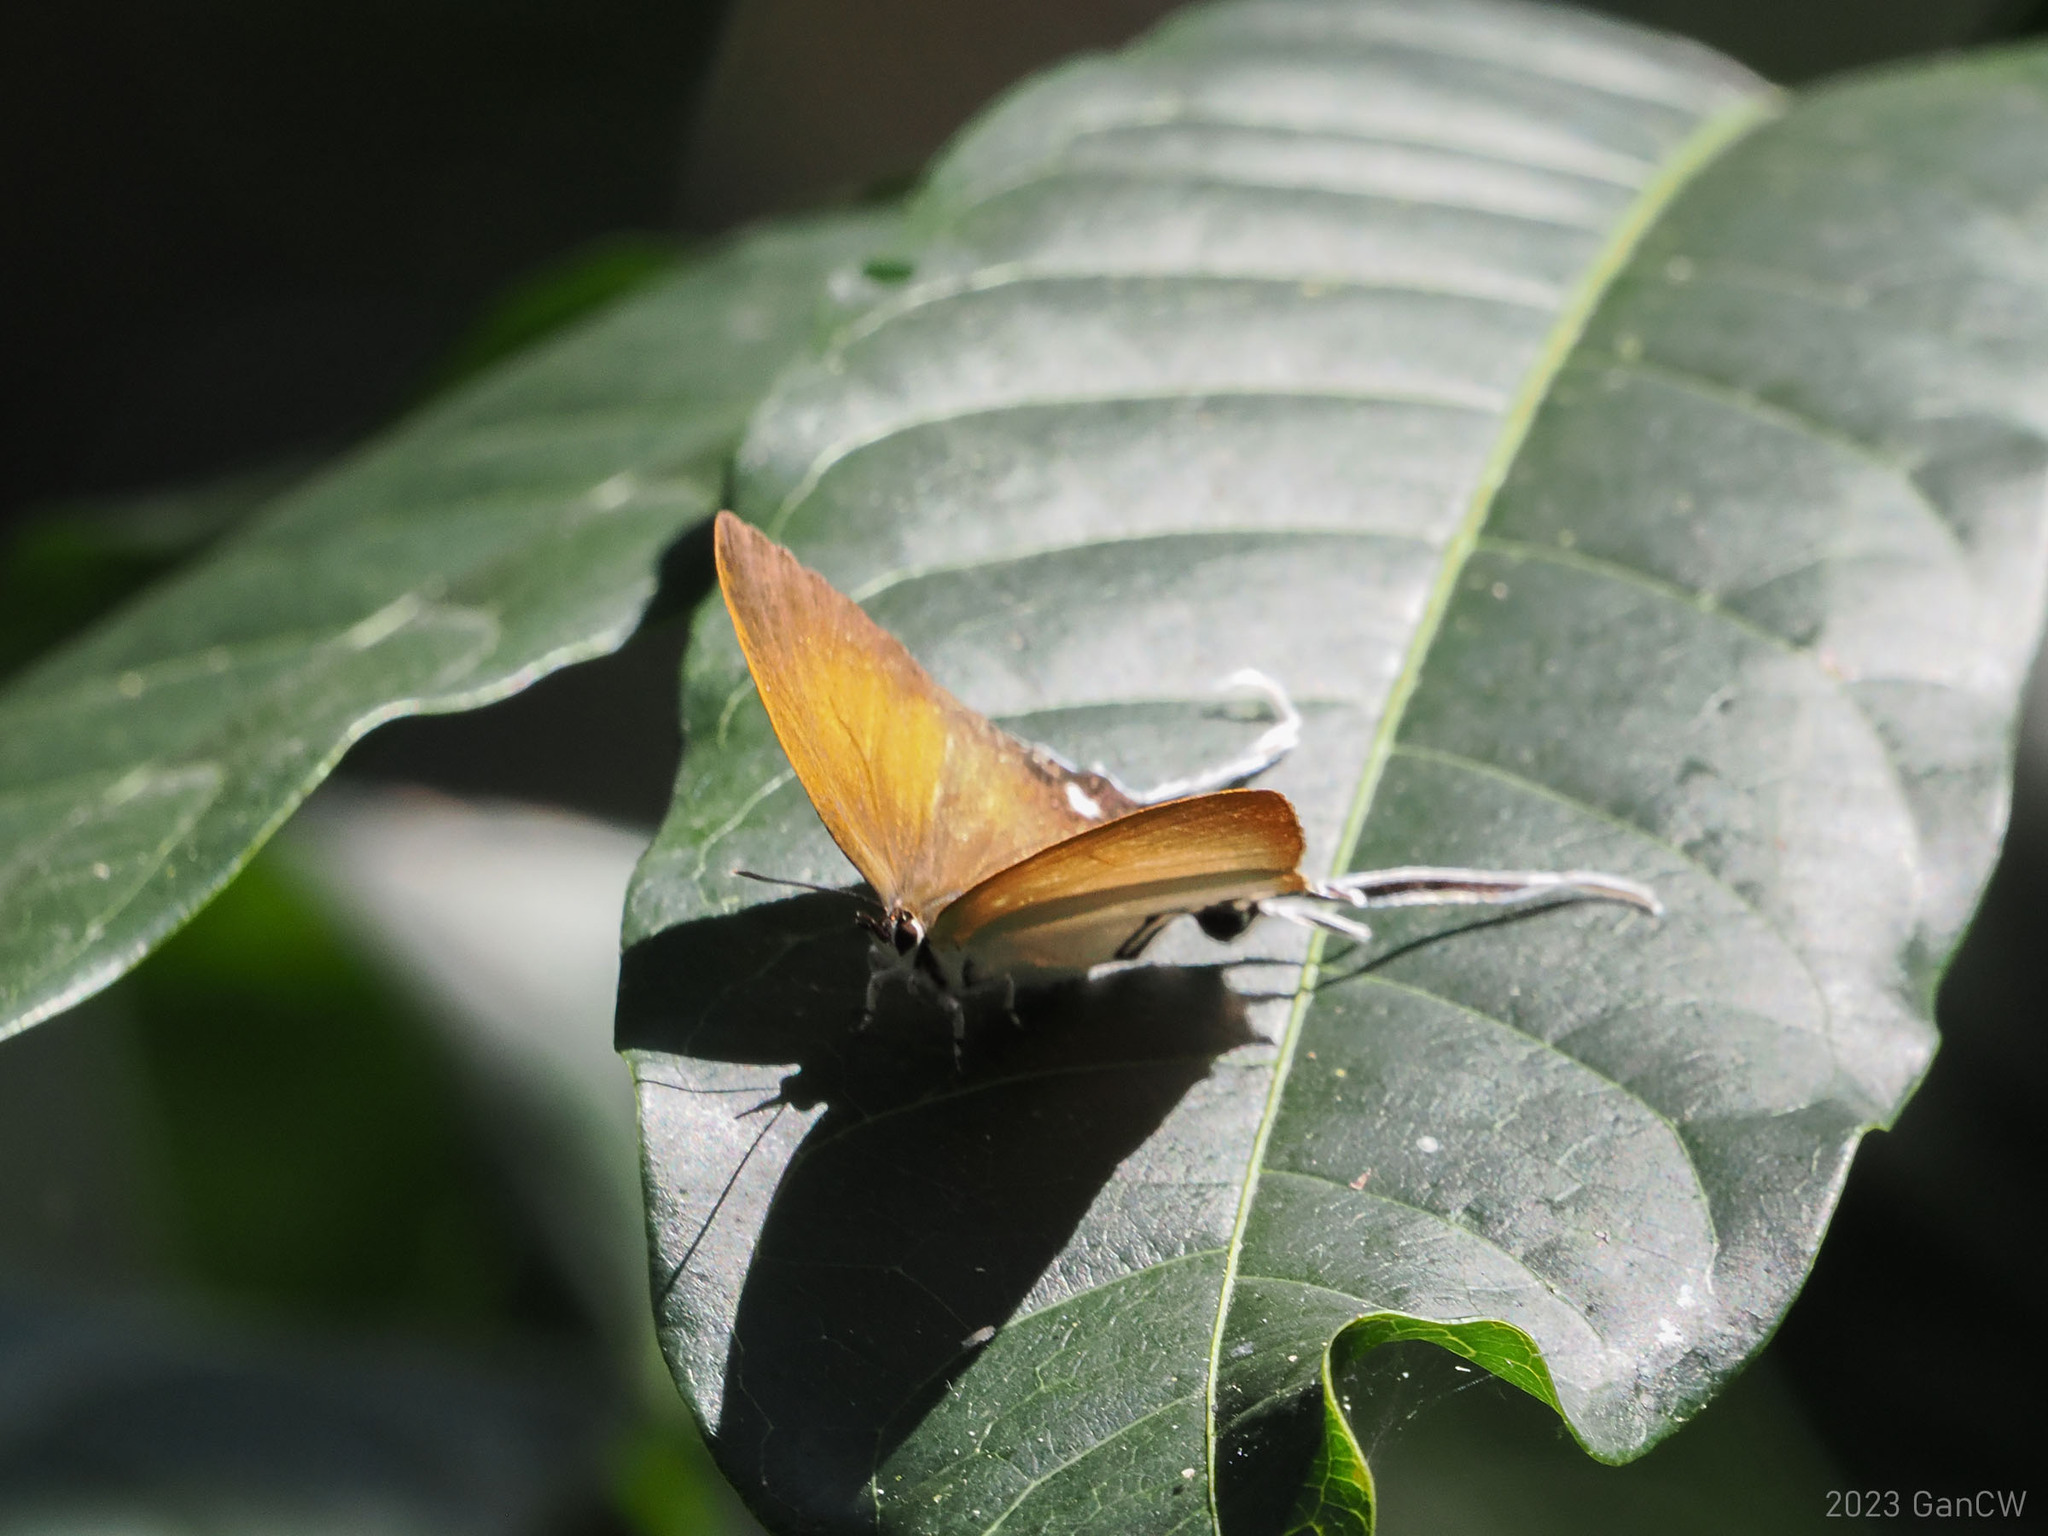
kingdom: Animalia
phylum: Arthropoda
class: Insecta
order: Lepidoptera
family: Lycaenidae
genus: Cheritra
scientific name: Cheritra orpheus
